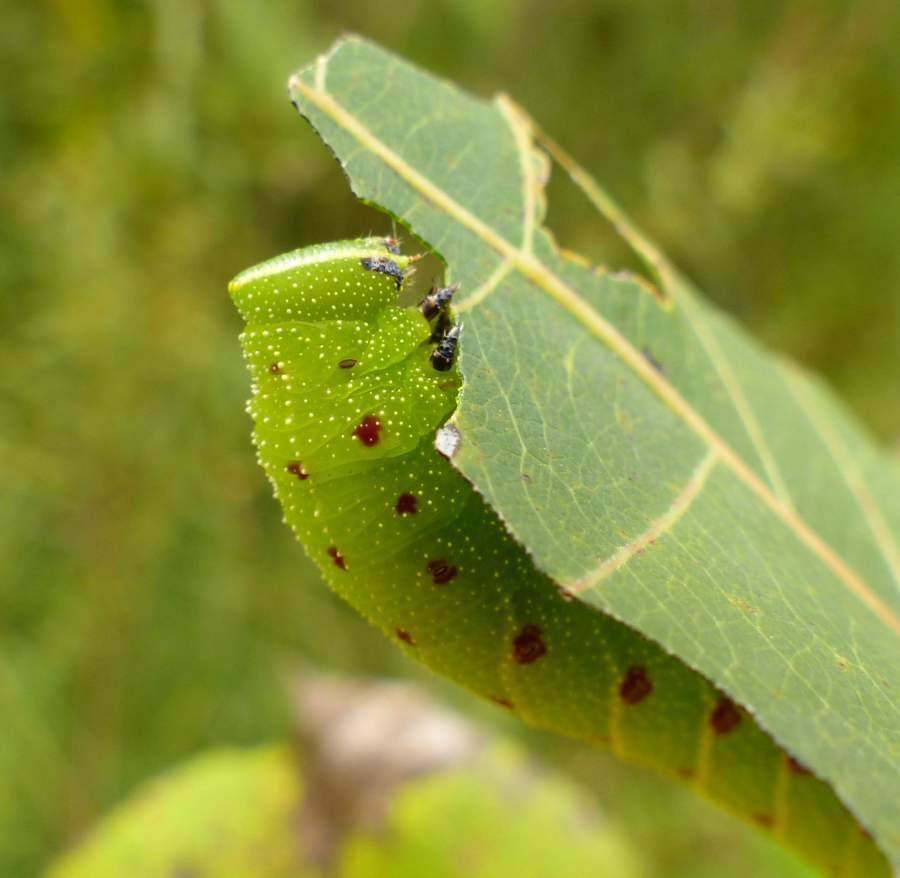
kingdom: Animalia
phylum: Arthropoda
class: Insecta
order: Lepidoptera
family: Sphingidae
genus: Paonias
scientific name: Paonias excaecata
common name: Blind-eyed sphinx
